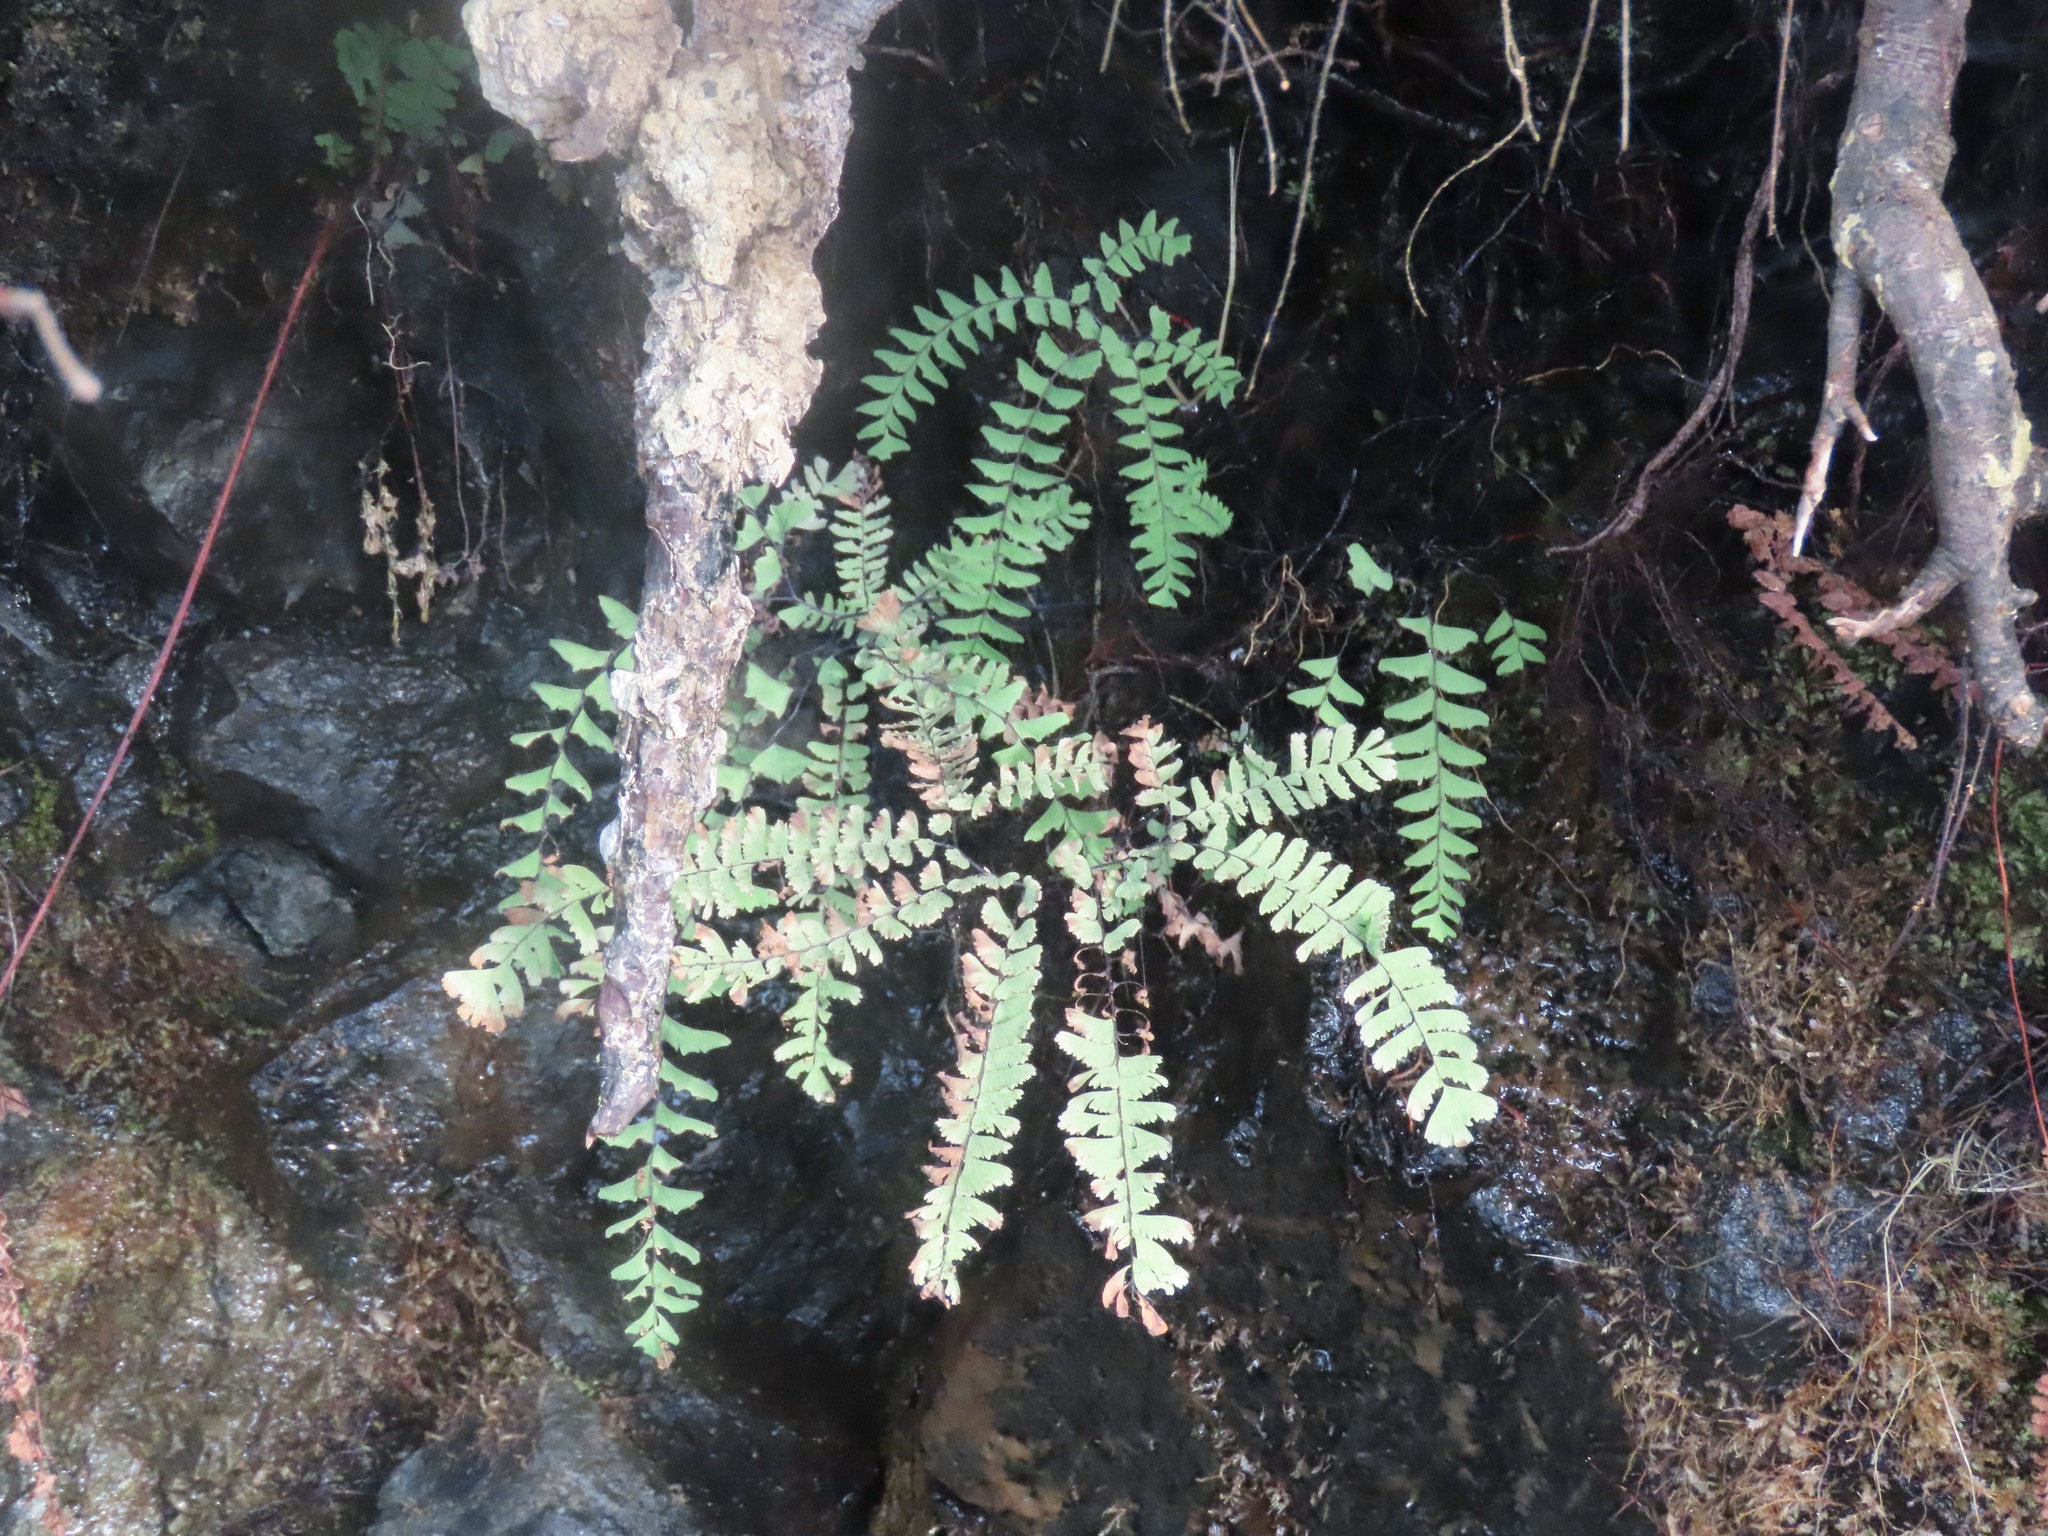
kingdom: Plantae
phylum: Tracheophyta
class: Polypodiopsida
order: Polypodiales
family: Pteridaceae
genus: Adiantum
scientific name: Adiantum aleuticum
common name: Aleutian maidenhair fern
